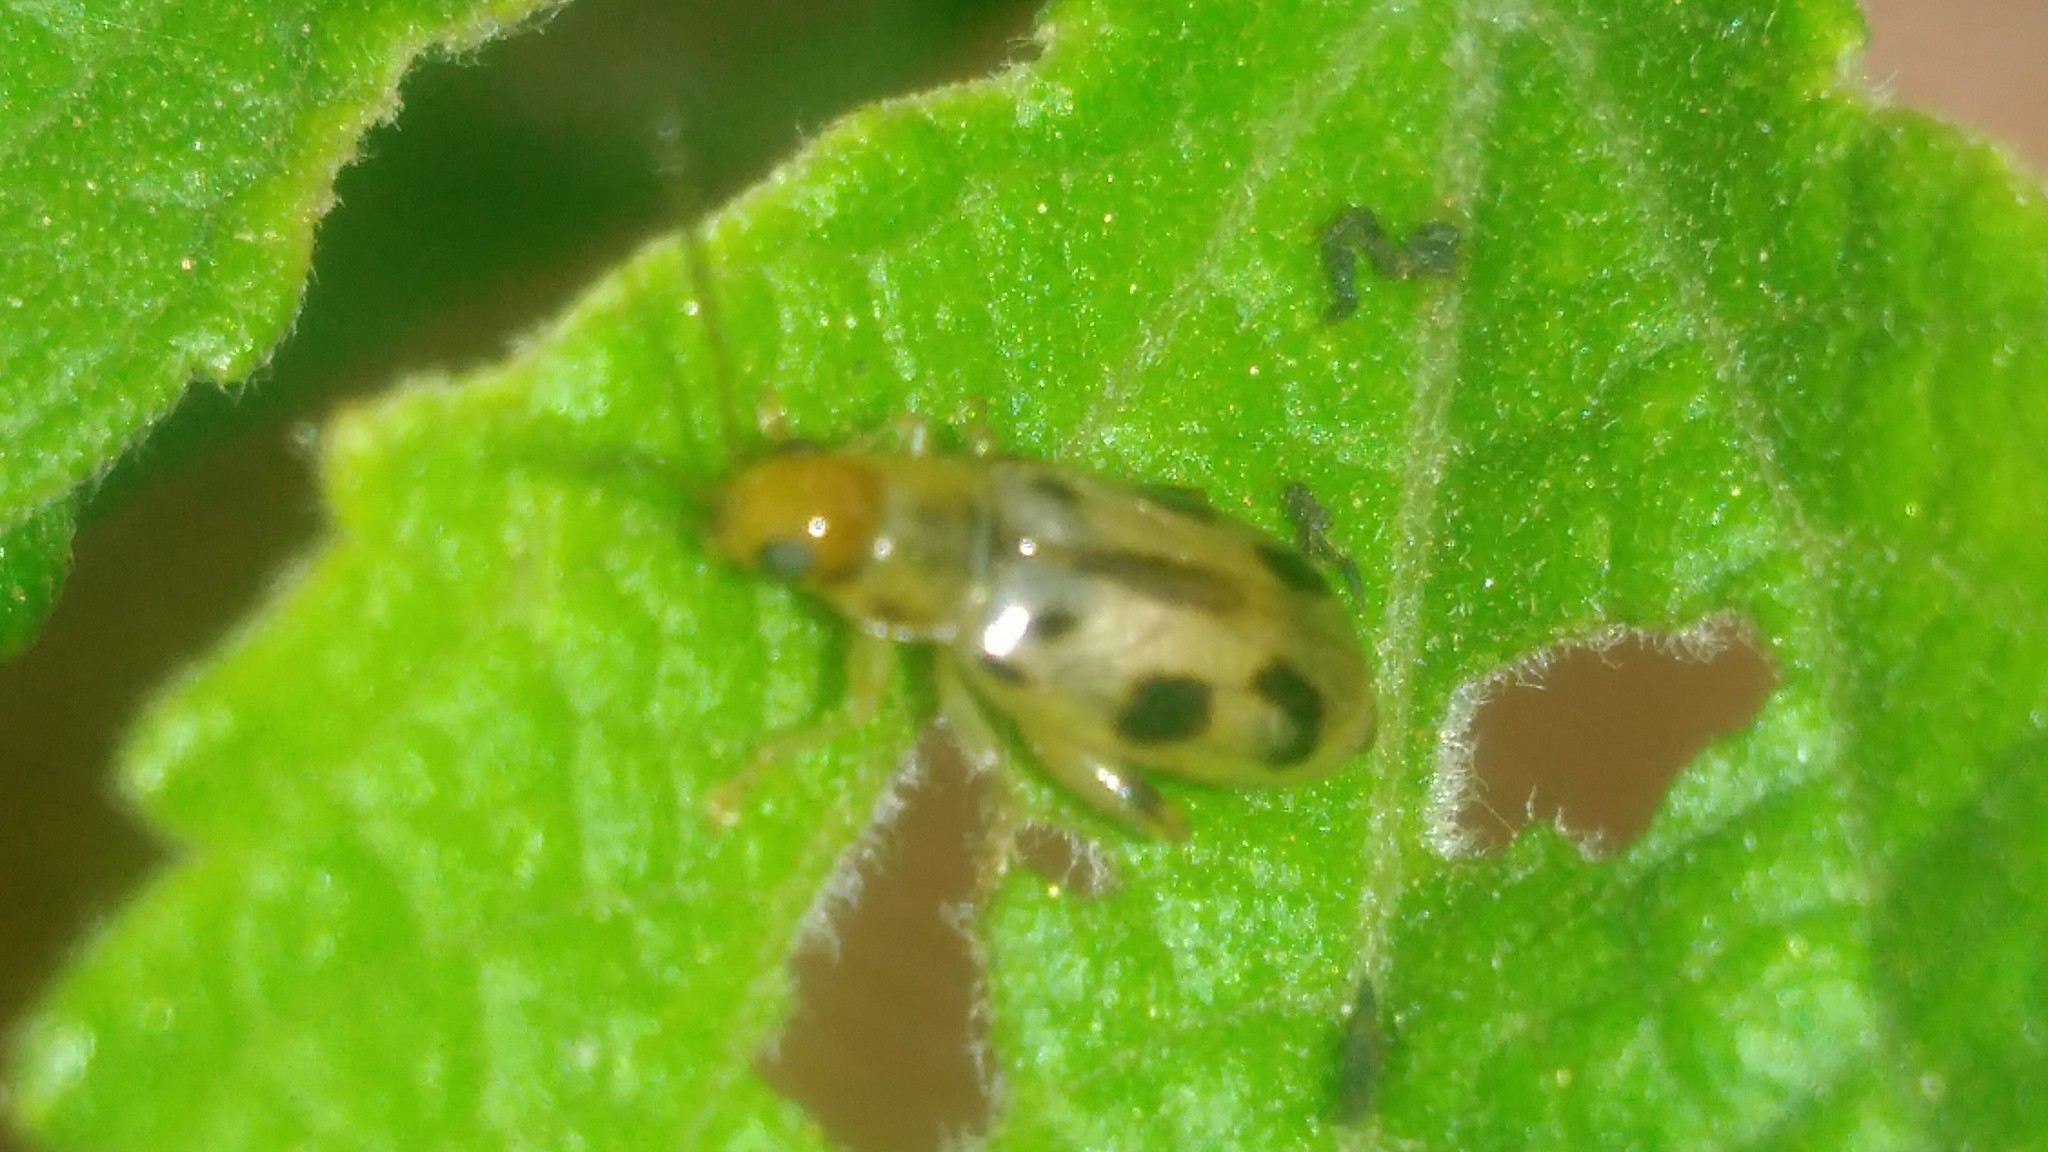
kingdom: Animalia
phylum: Arthropoda
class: Insecta
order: Coleoptera
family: Chrysomelidae
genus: Systena
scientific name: Systena
